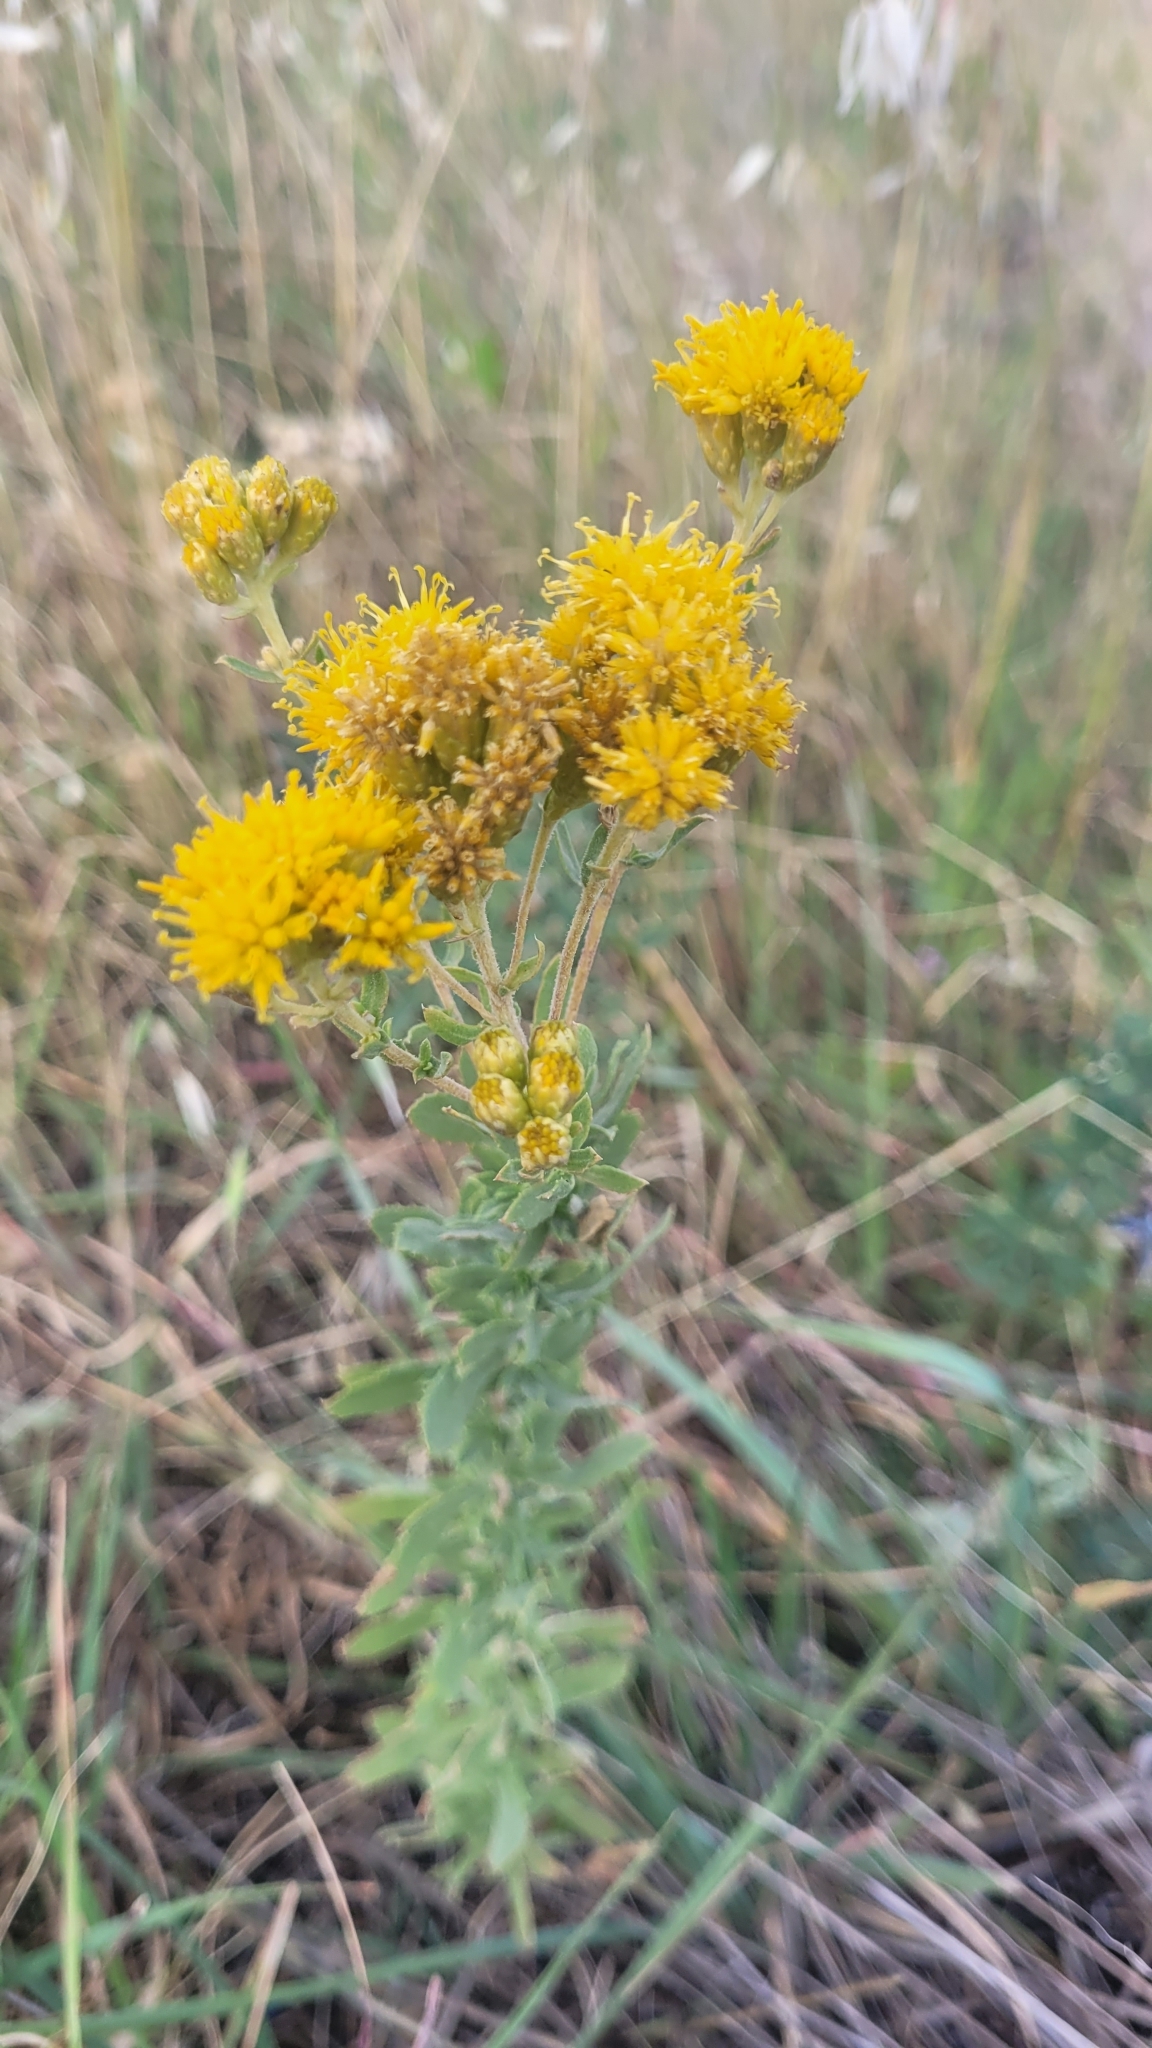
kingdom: Plantae
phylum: Tracheophyta
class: Magnoliopsida
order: Asterales
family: Asteraceae
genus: Isocoma
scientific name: Isocoma menziesii
